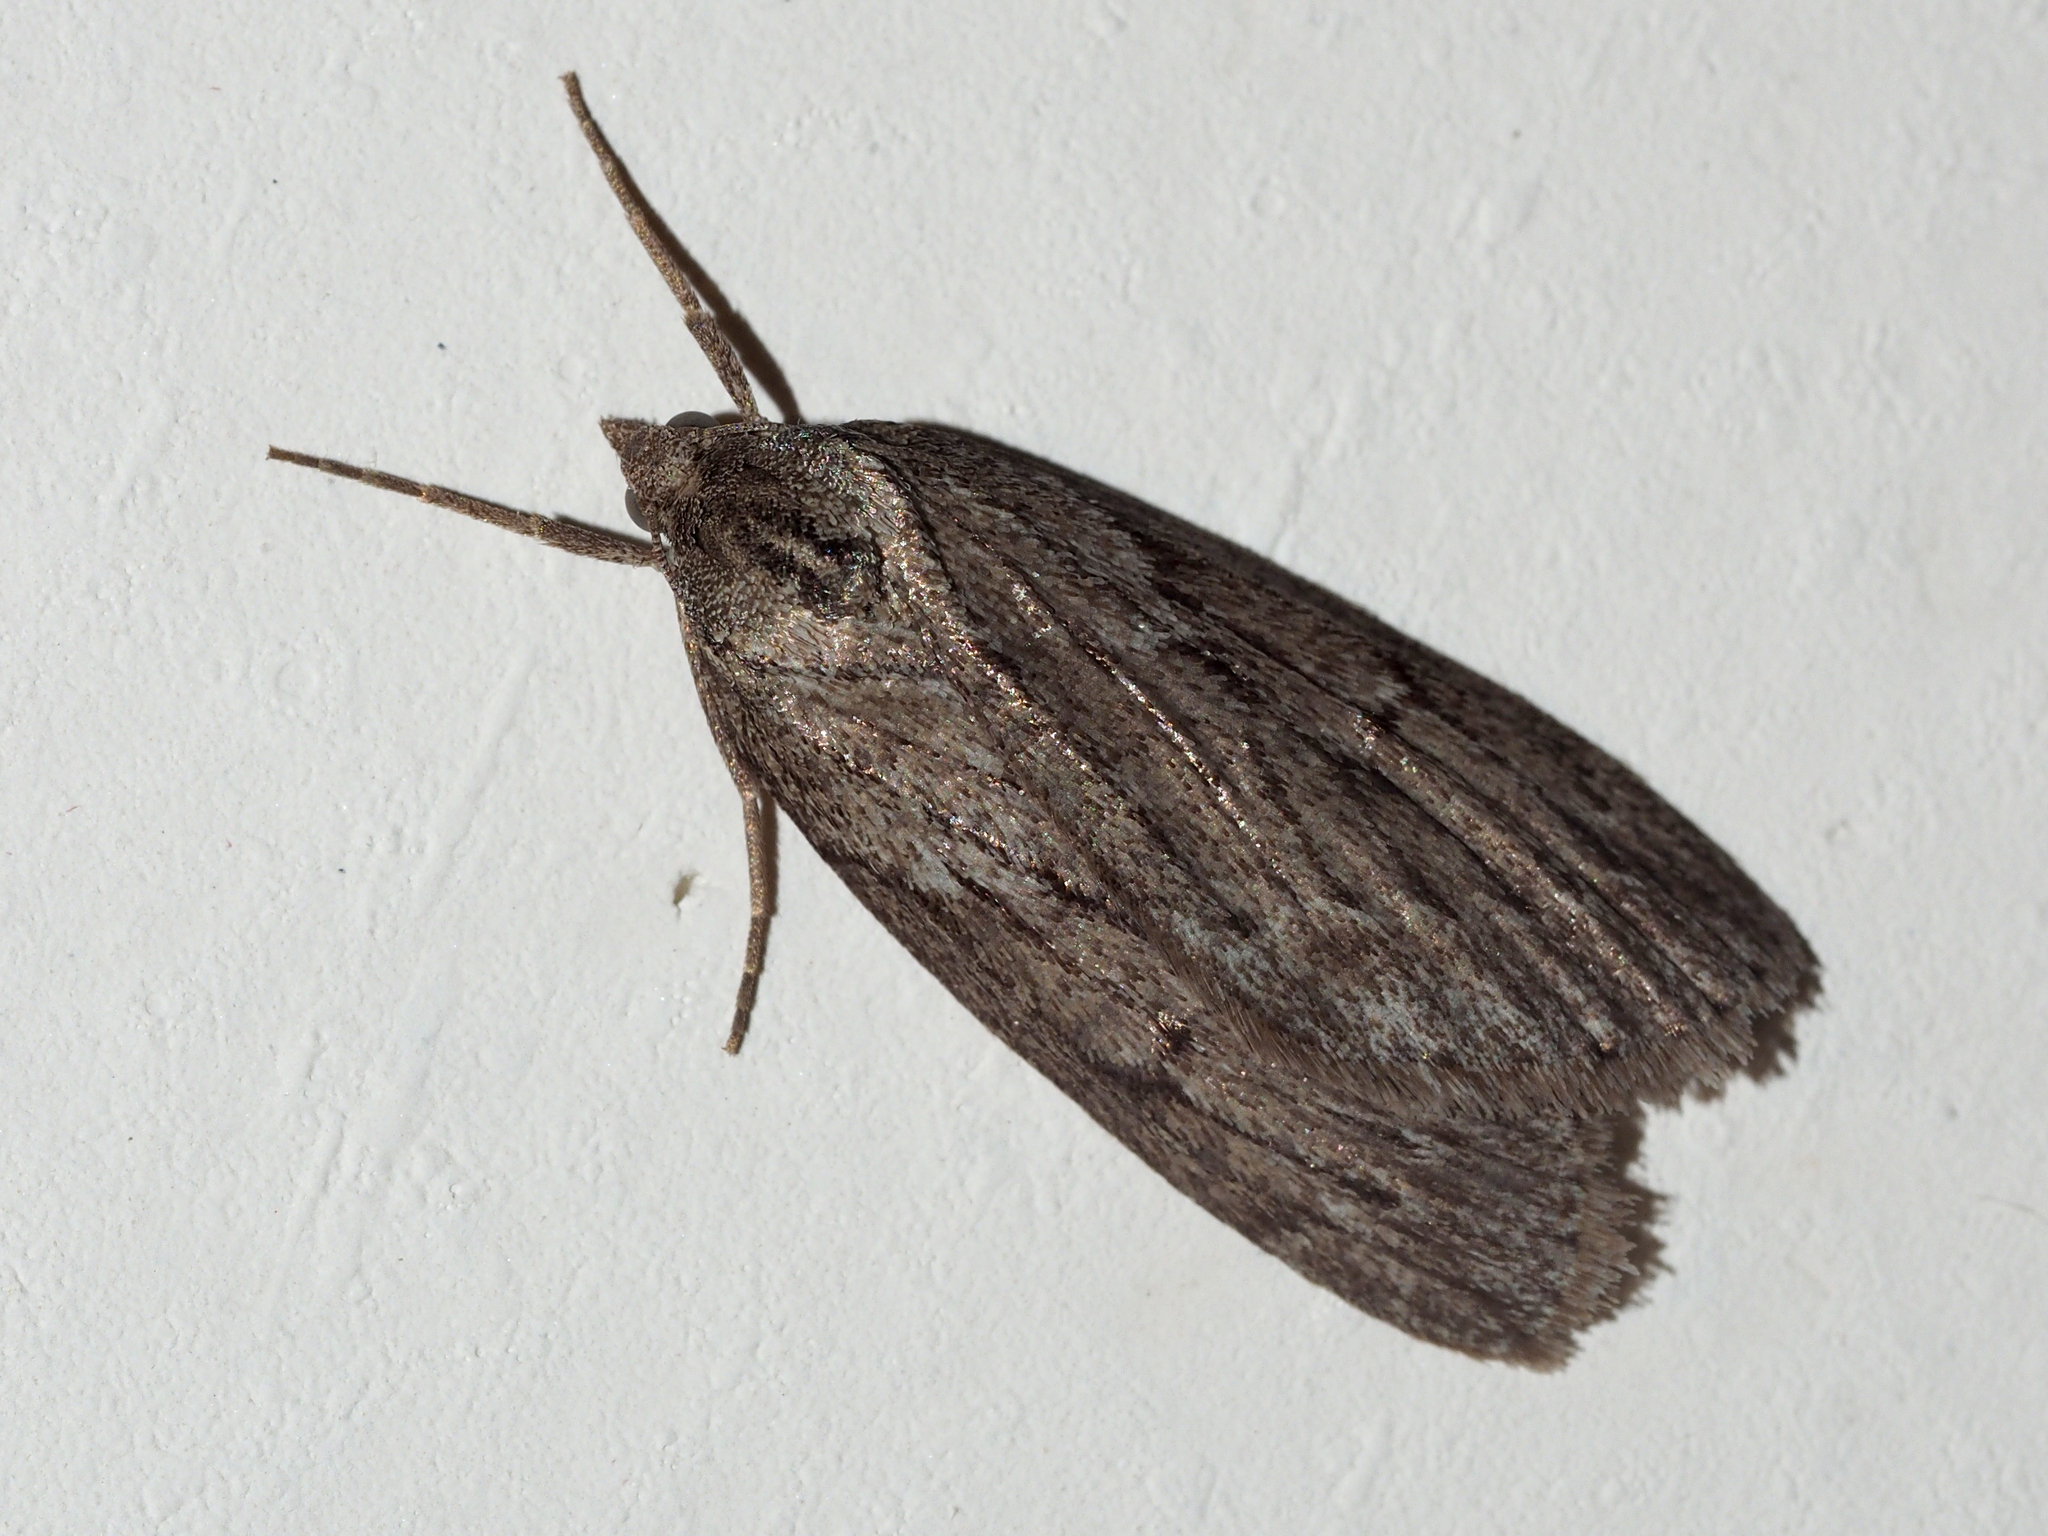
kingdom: Animalia
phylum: Arthropoda
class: Insecta
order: Lepidoptera
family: Geometridae
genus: Pachycnemia
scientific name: Pachycnemia hippocastanaria
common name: Horse chestnut
